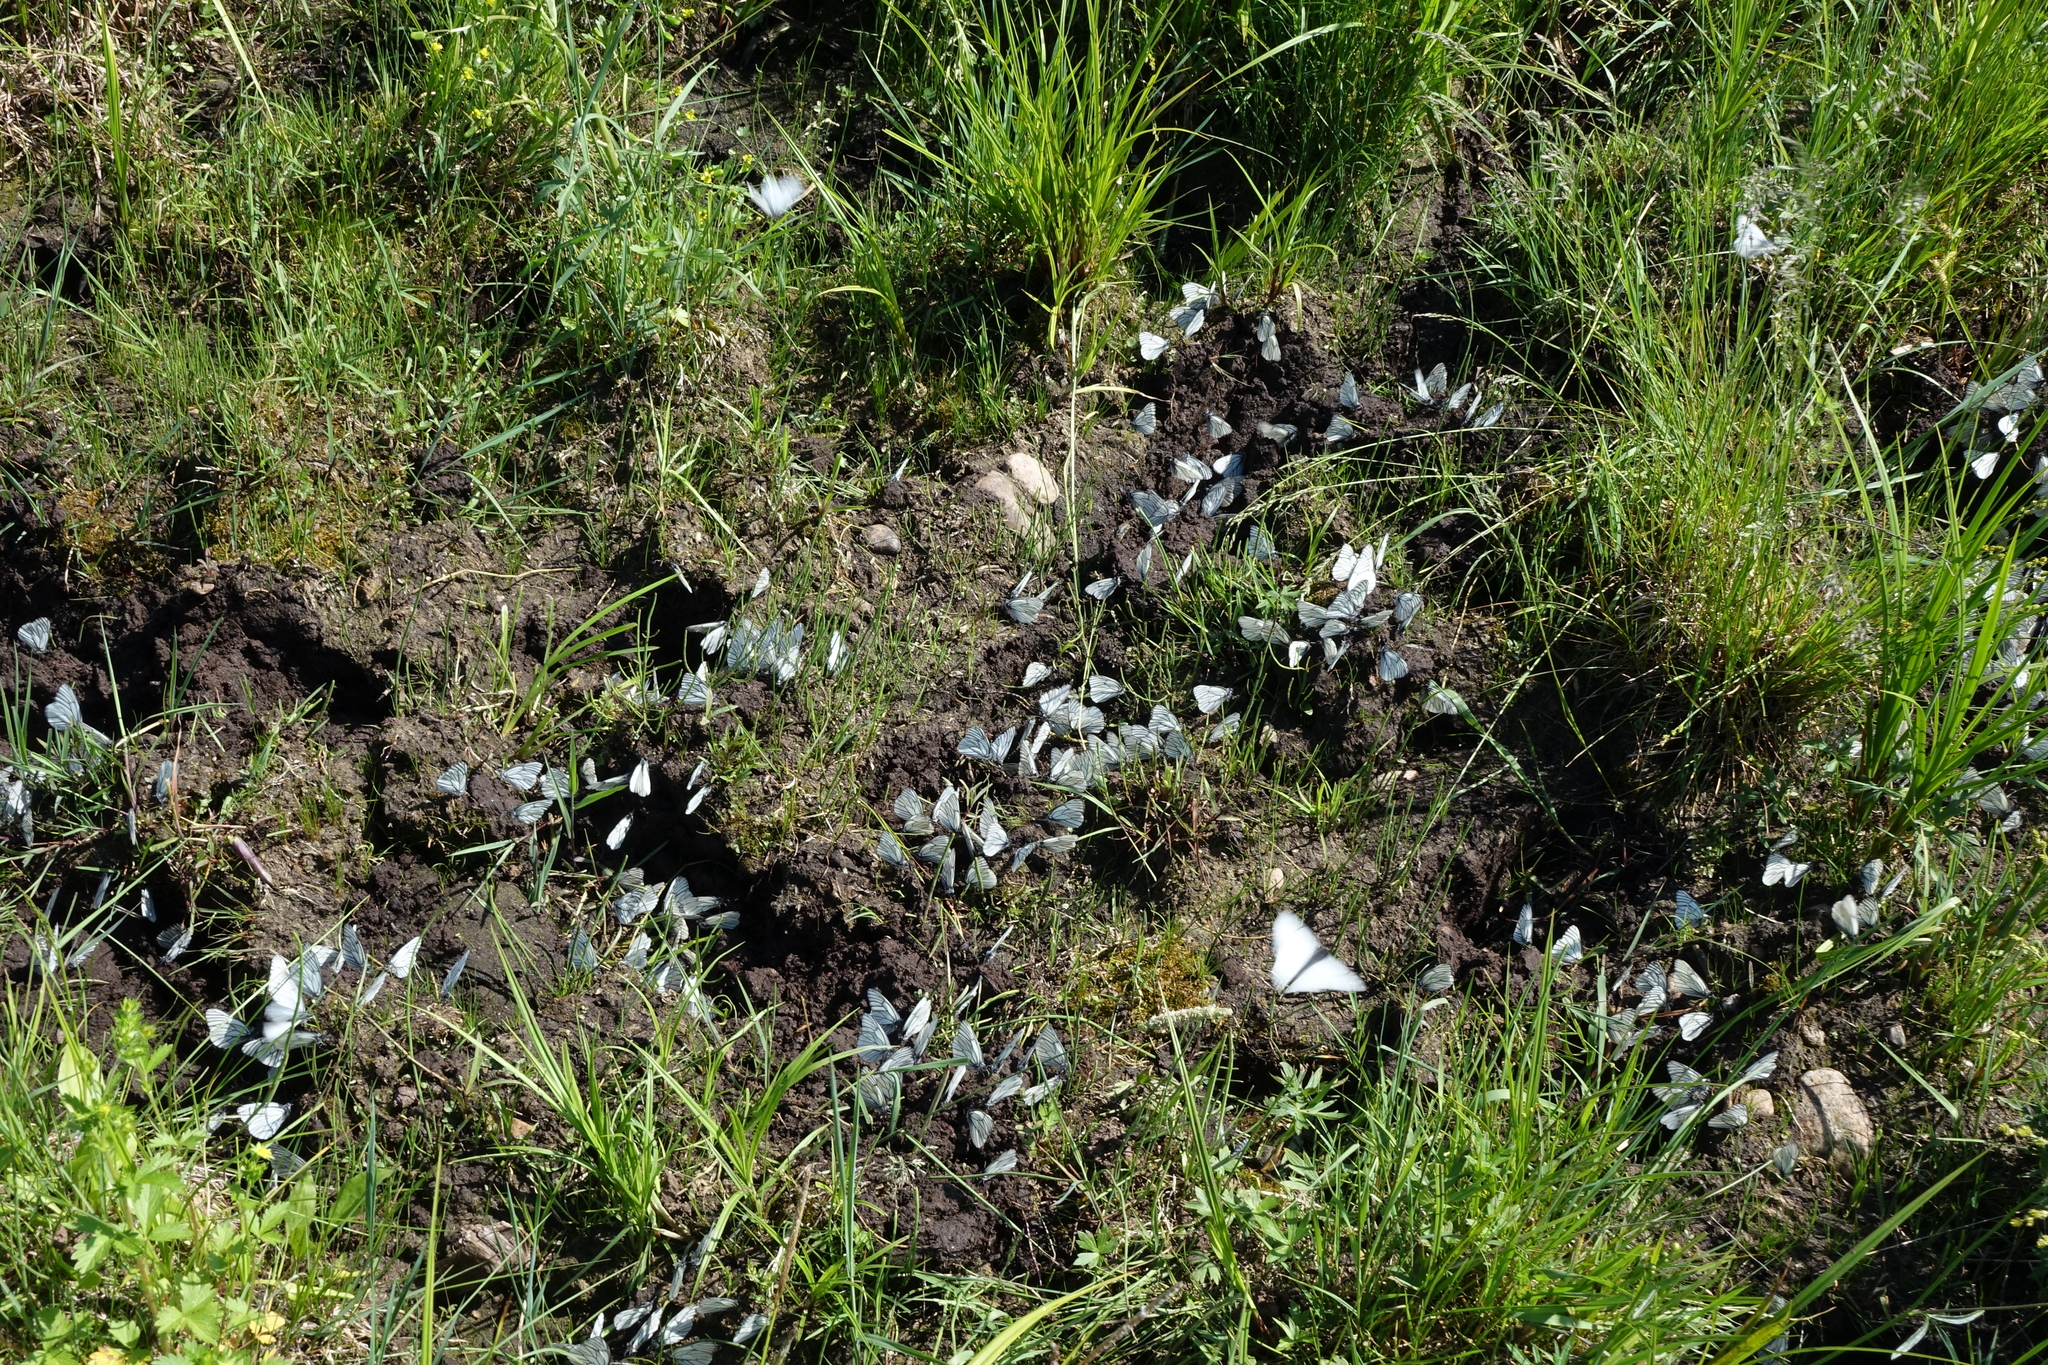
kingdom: Animalia
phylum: Arthropoda
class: Insecta
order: Lepidoptera
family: Pieridae
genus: Aporia
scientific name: Aporia crataegi
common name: Black-veined white
